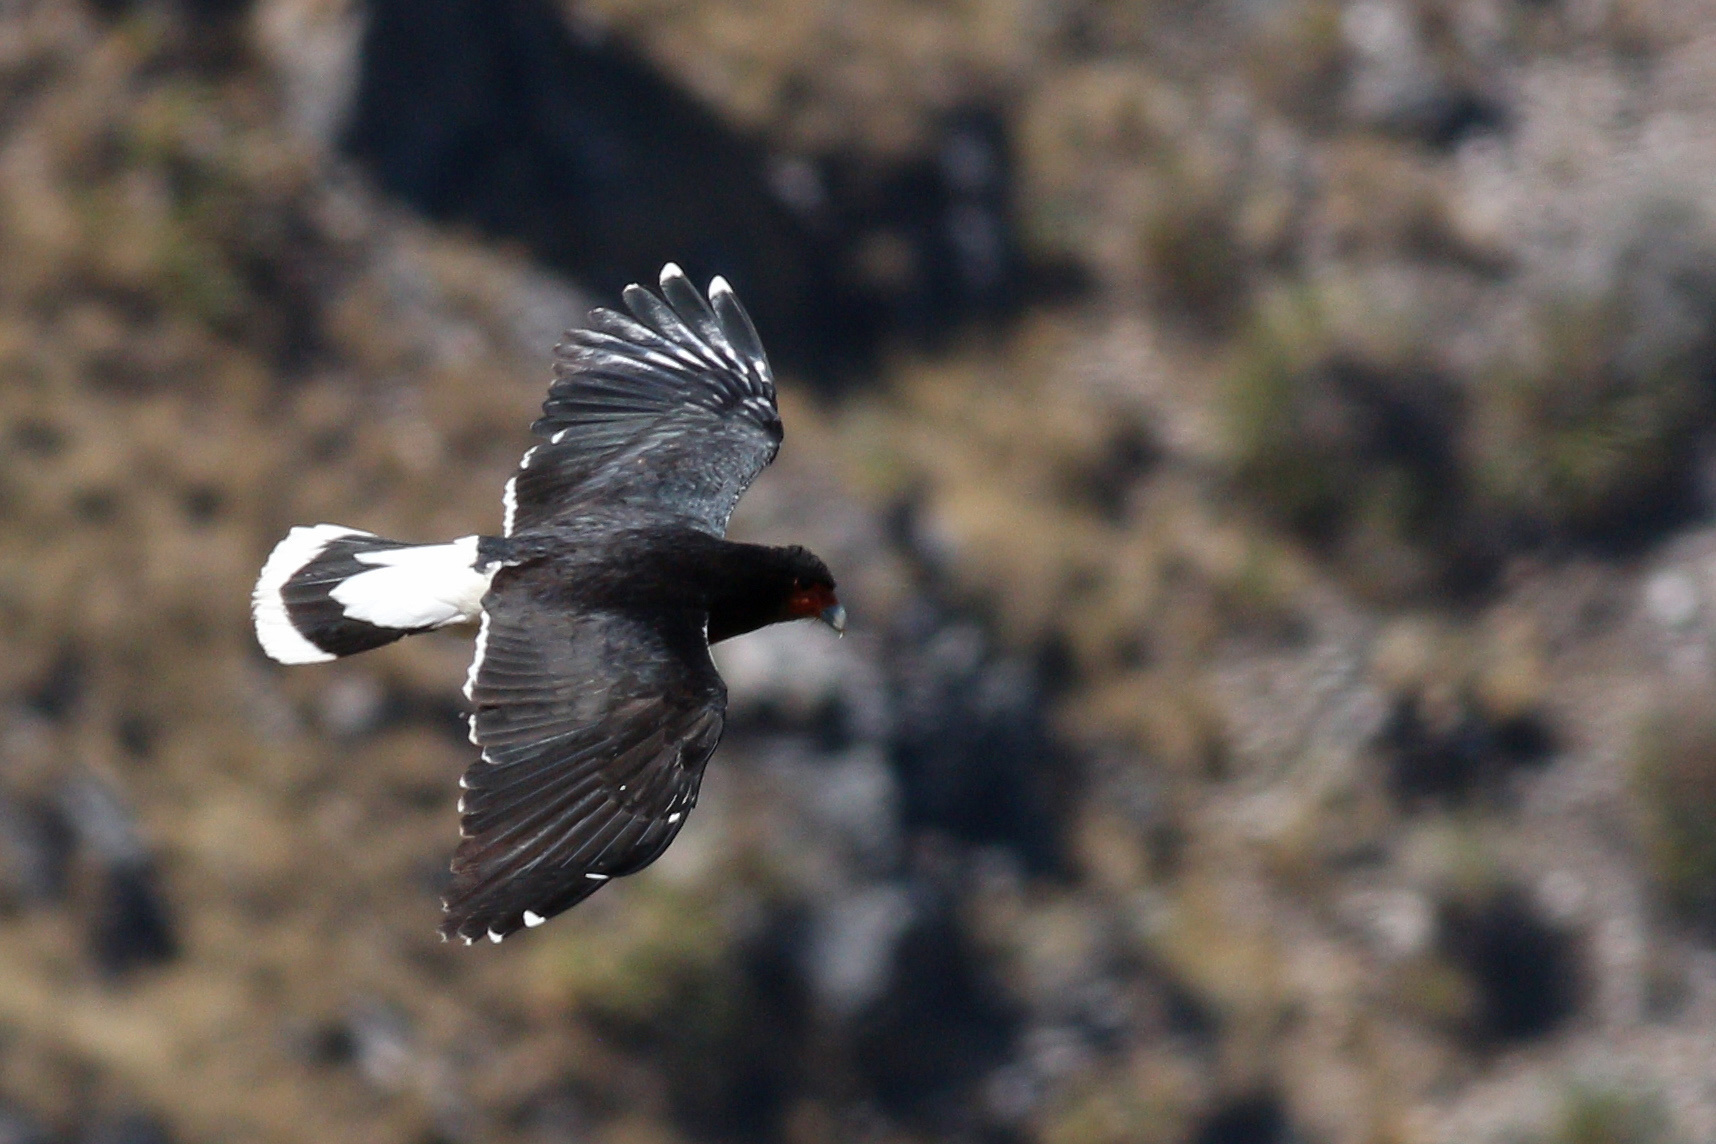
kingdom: Animalia
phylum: Chordata
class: Aves
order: Falconiformes
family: Falconidae
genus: Daptrius
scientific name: Daptrius
